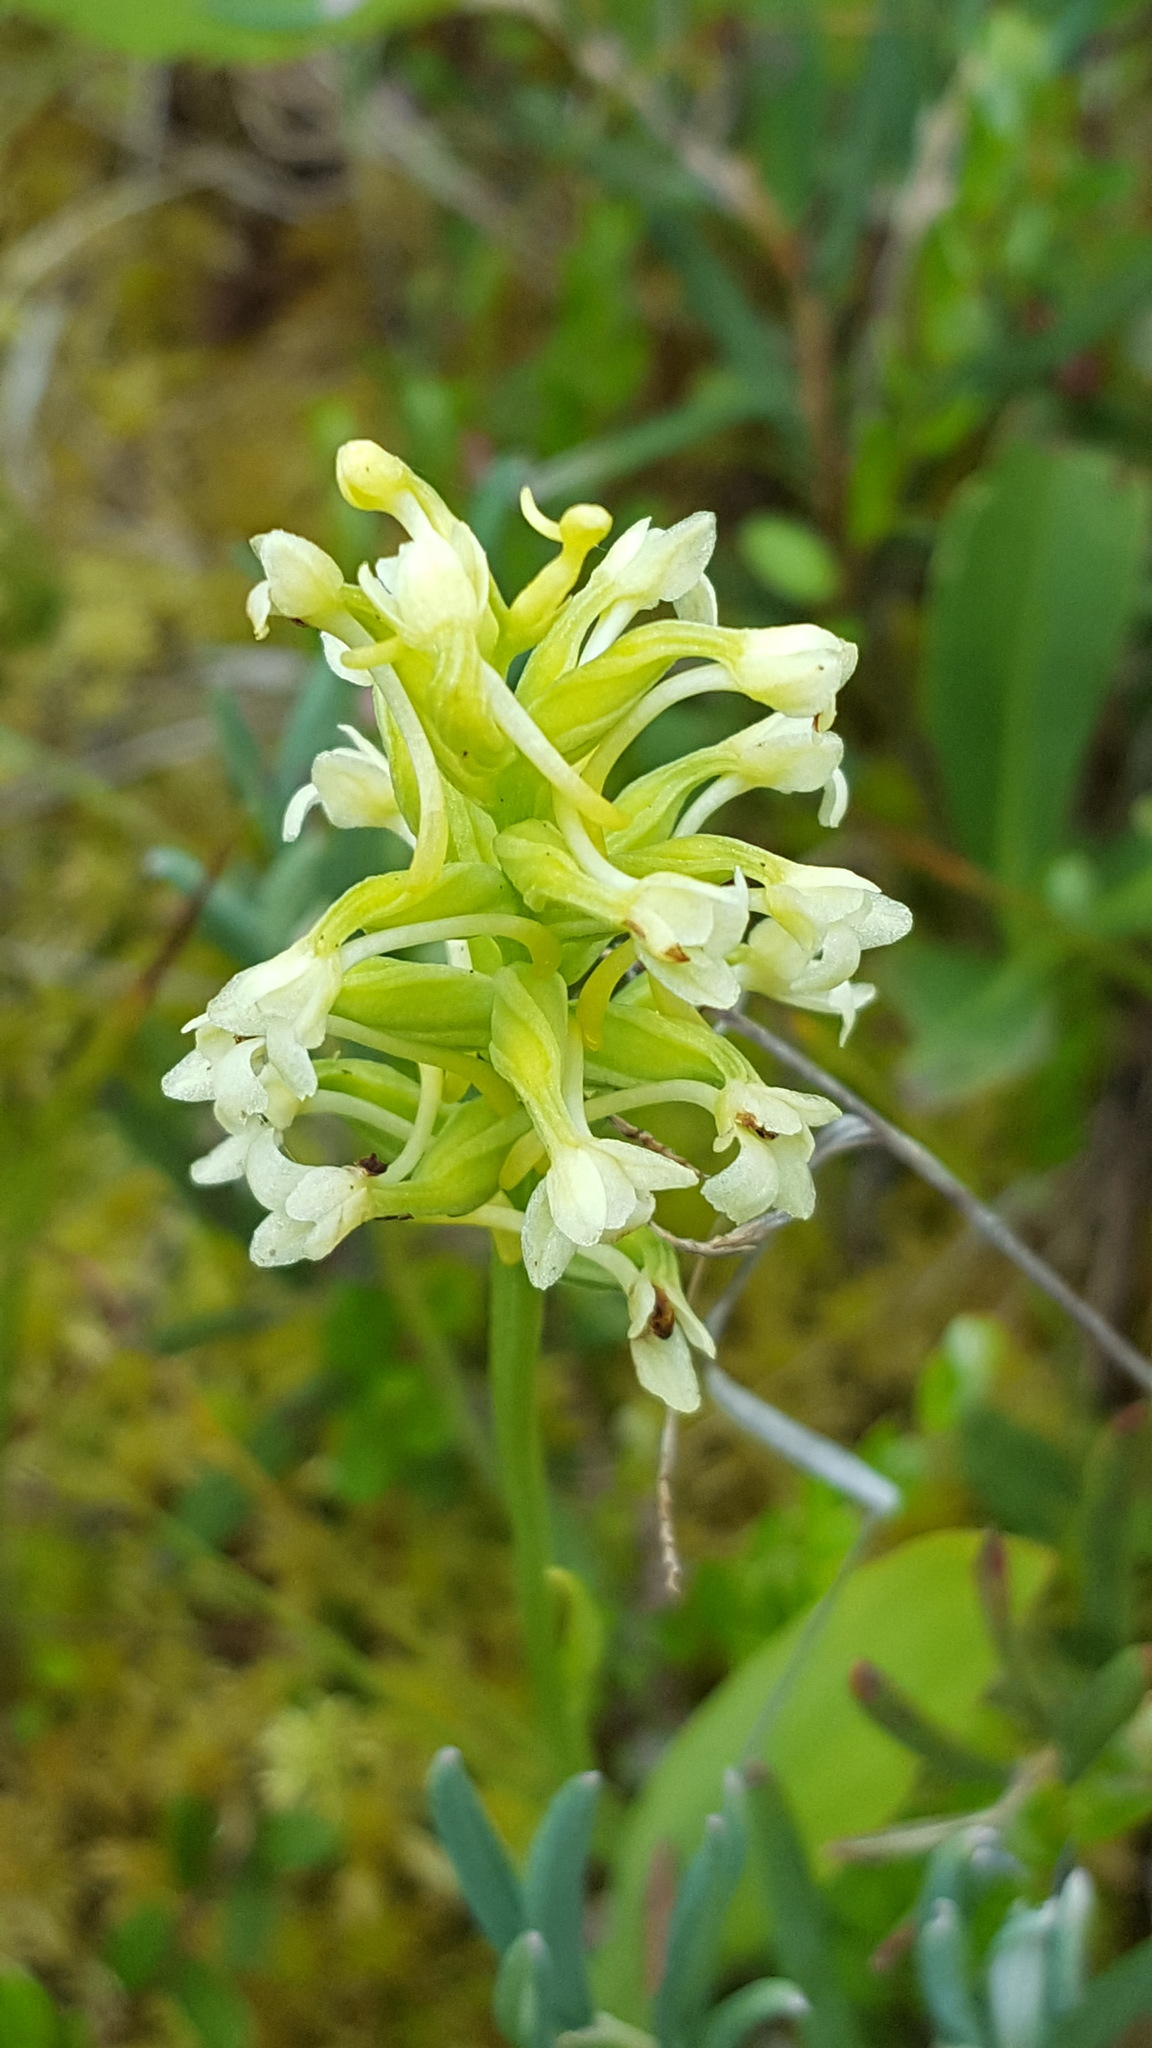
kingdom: Plantae
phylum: Tracheophyta
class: Liliopsida
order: Asparagales
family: Orchidaceae
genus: Platanthera
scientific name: Platanthera clavellata
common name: Club-spur orchid
